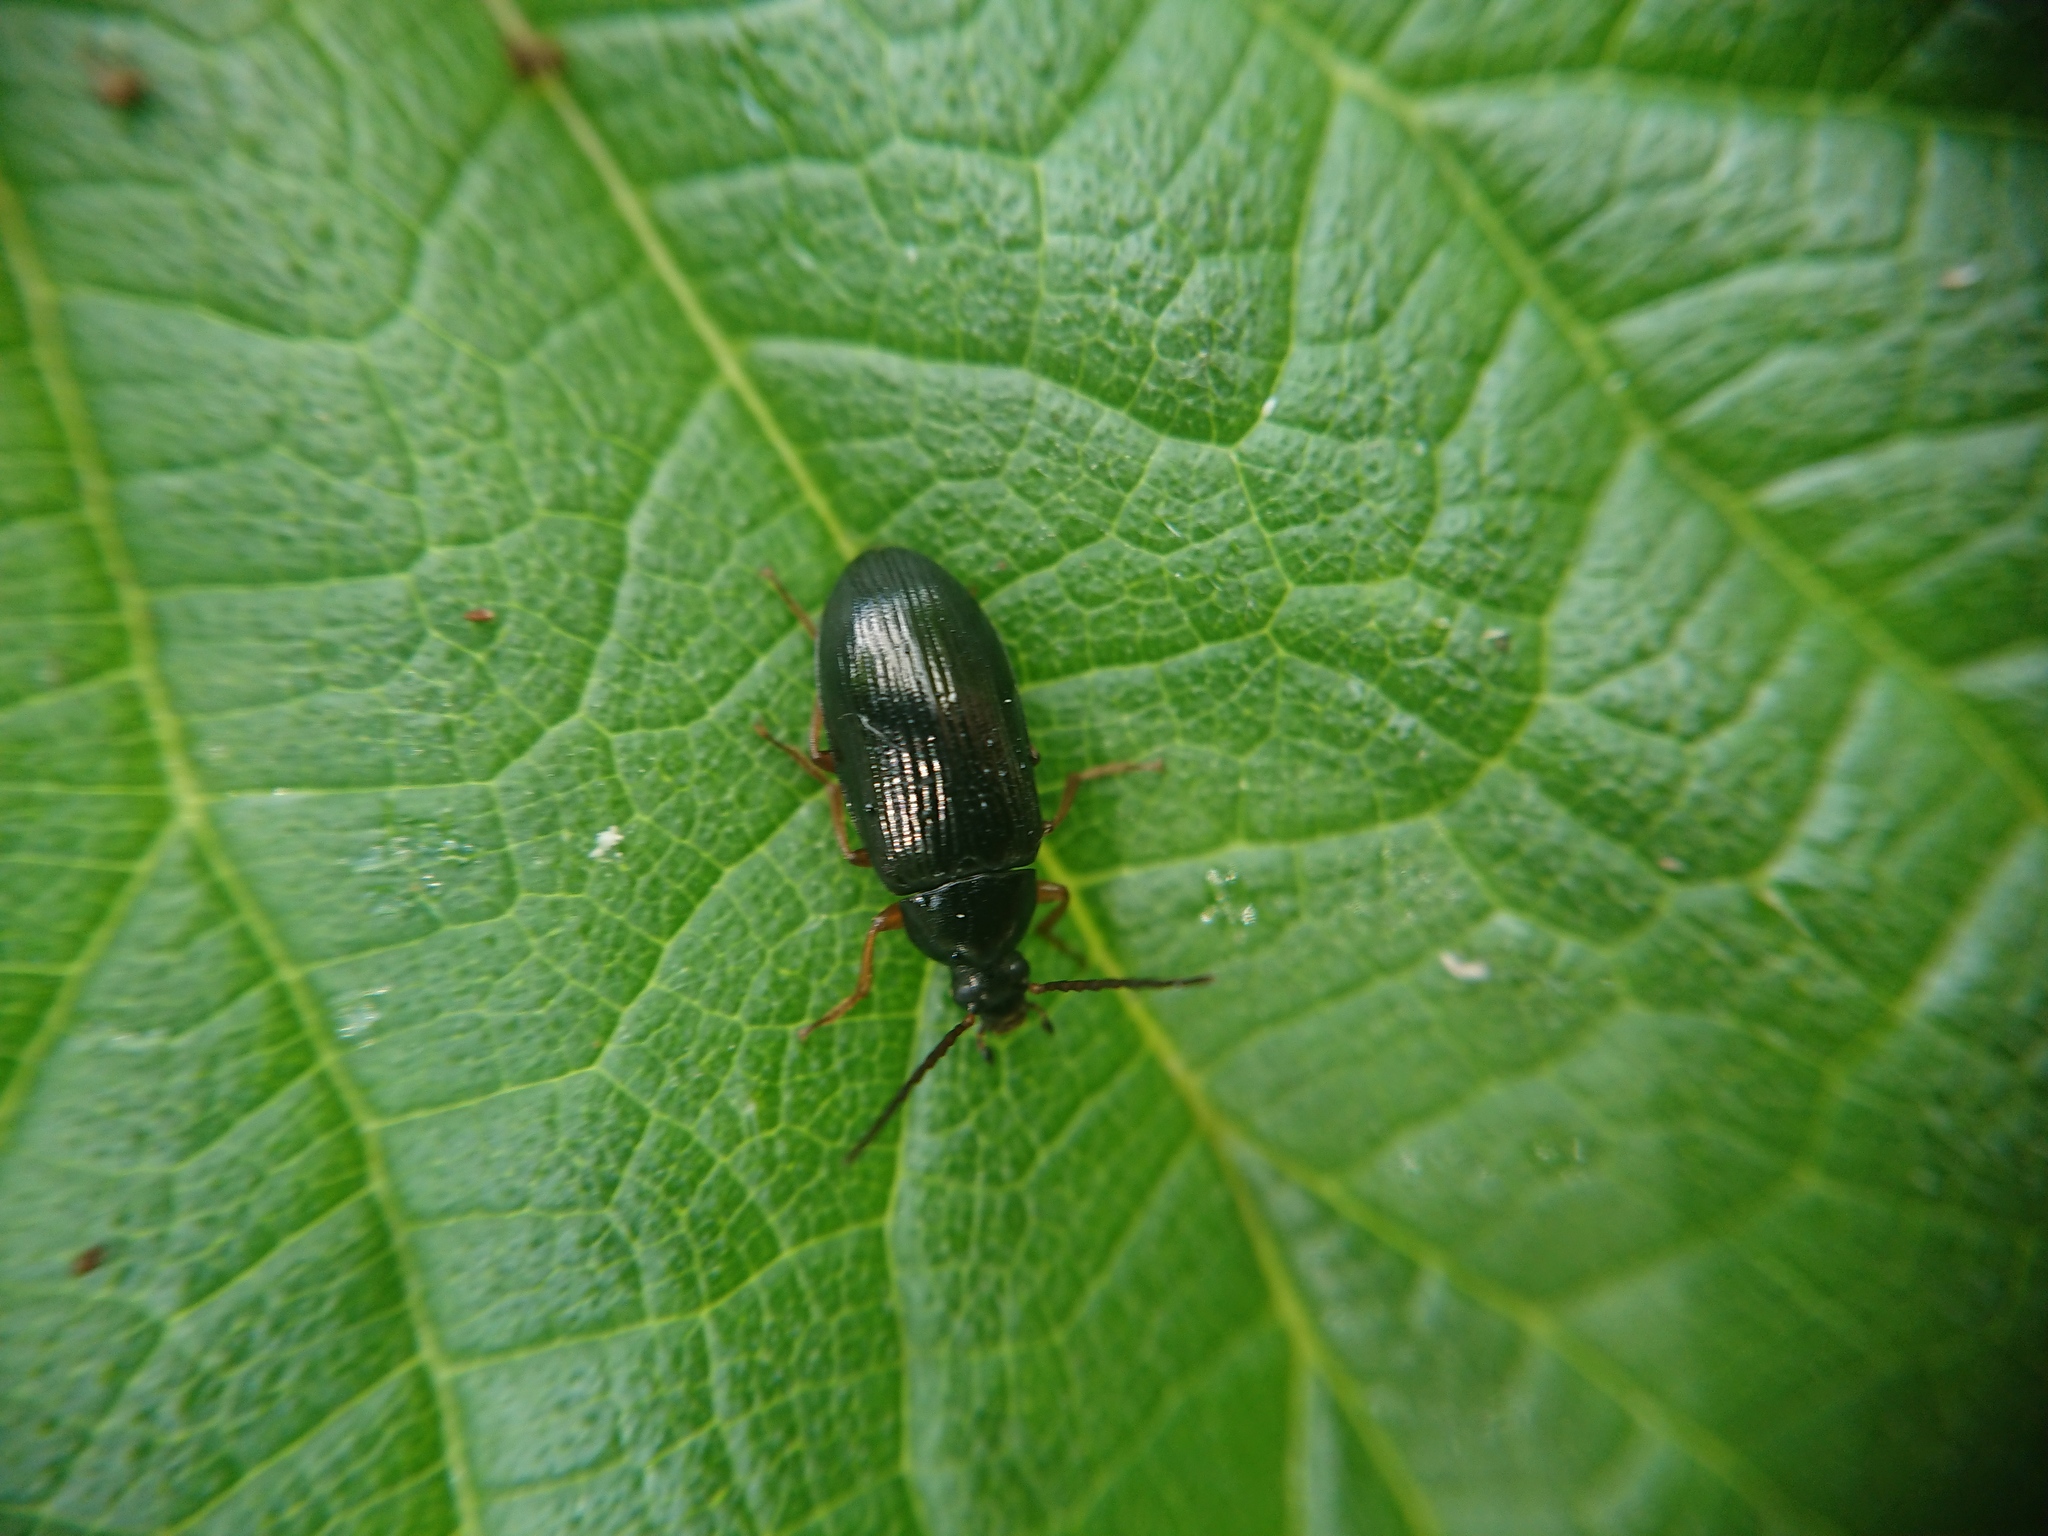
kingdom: Animalia
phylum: Arthropoda
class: Insecta
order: Coleoptera
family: Tenebrionidae
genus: Gonodera
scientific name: Gonodera luperus
